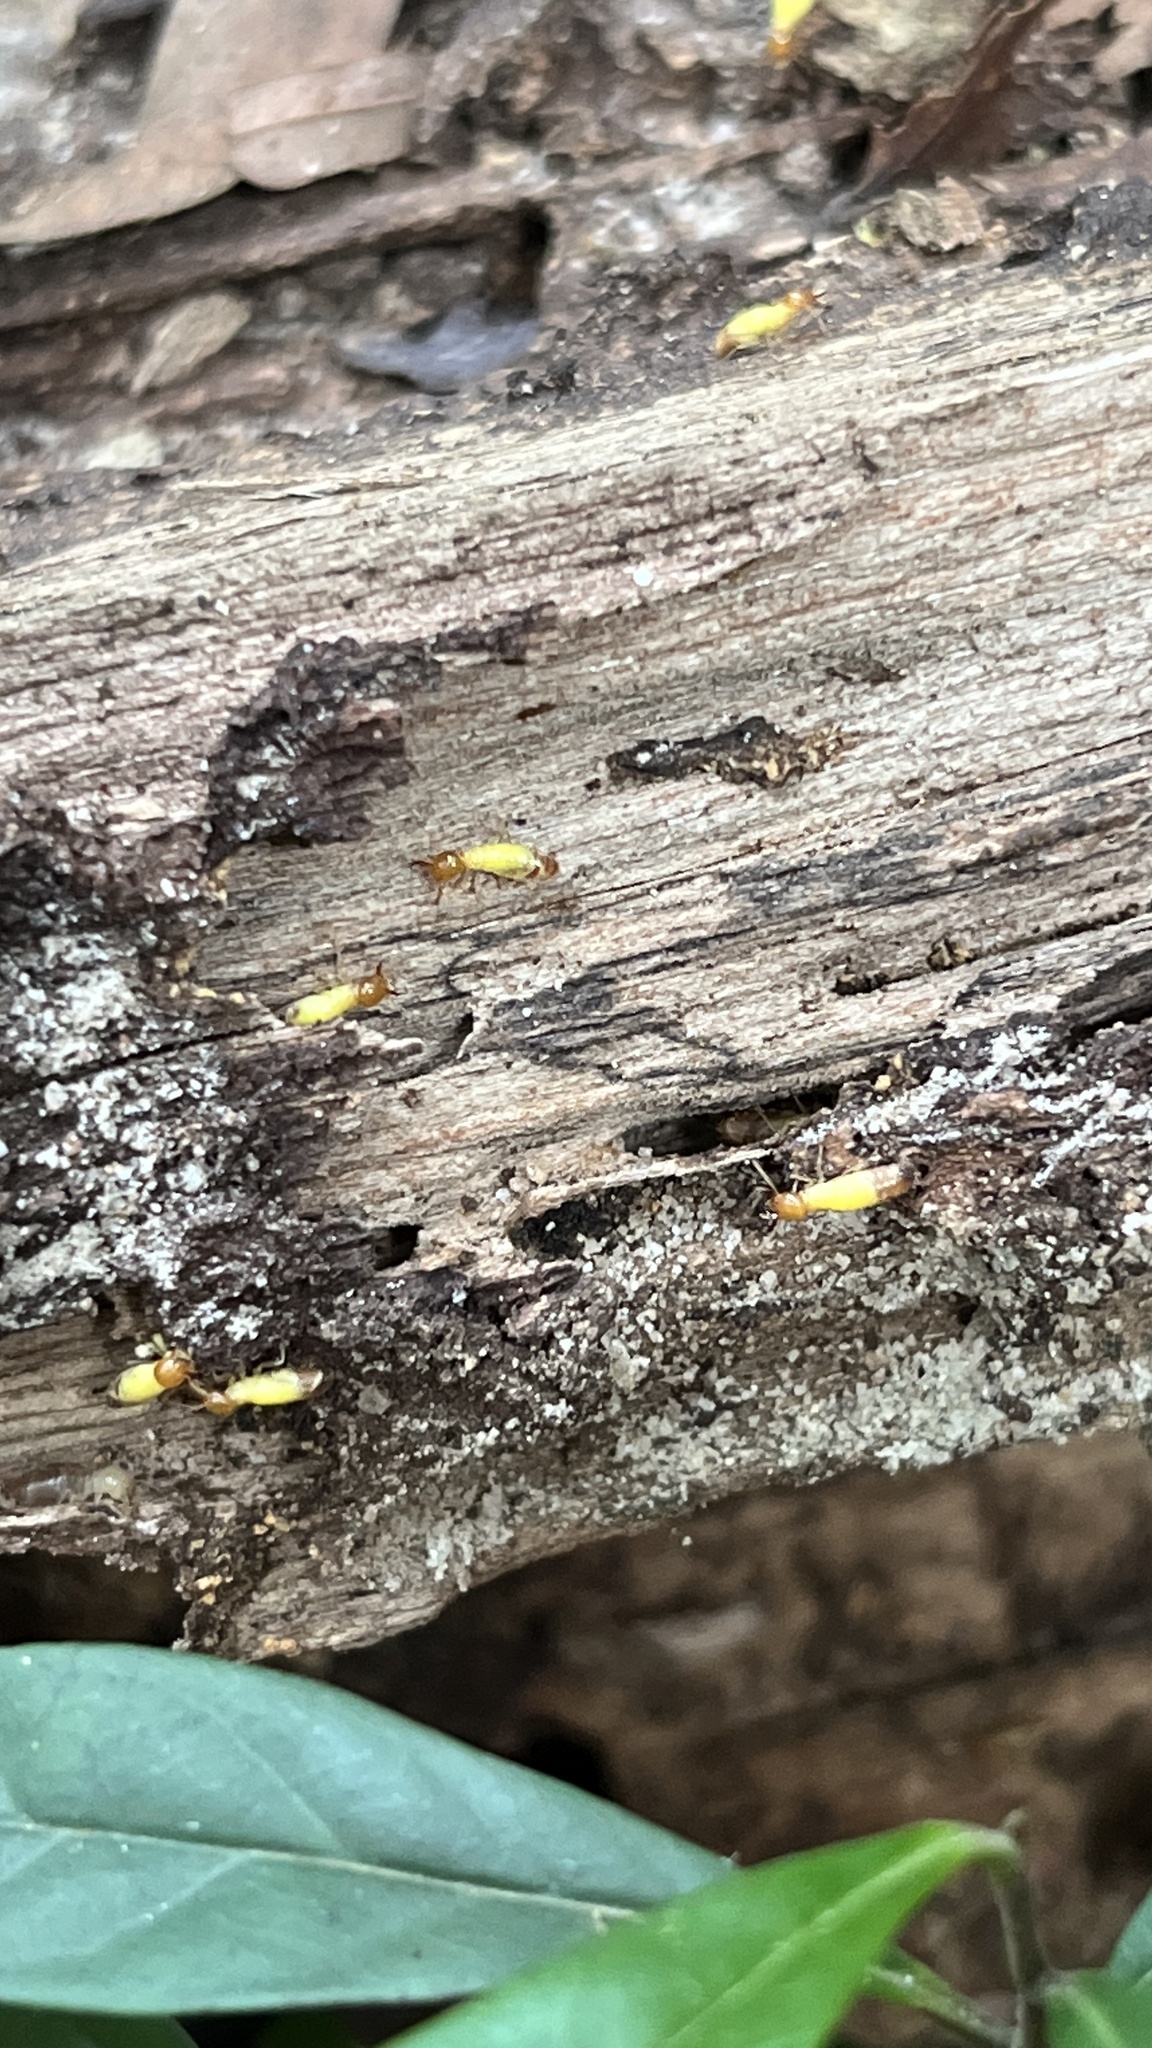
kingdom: Animalia
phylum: Arthropoda
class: Insecta
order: Blattodea
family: Termitidae
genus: Globitermes
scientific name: Globitermes sulphureus
